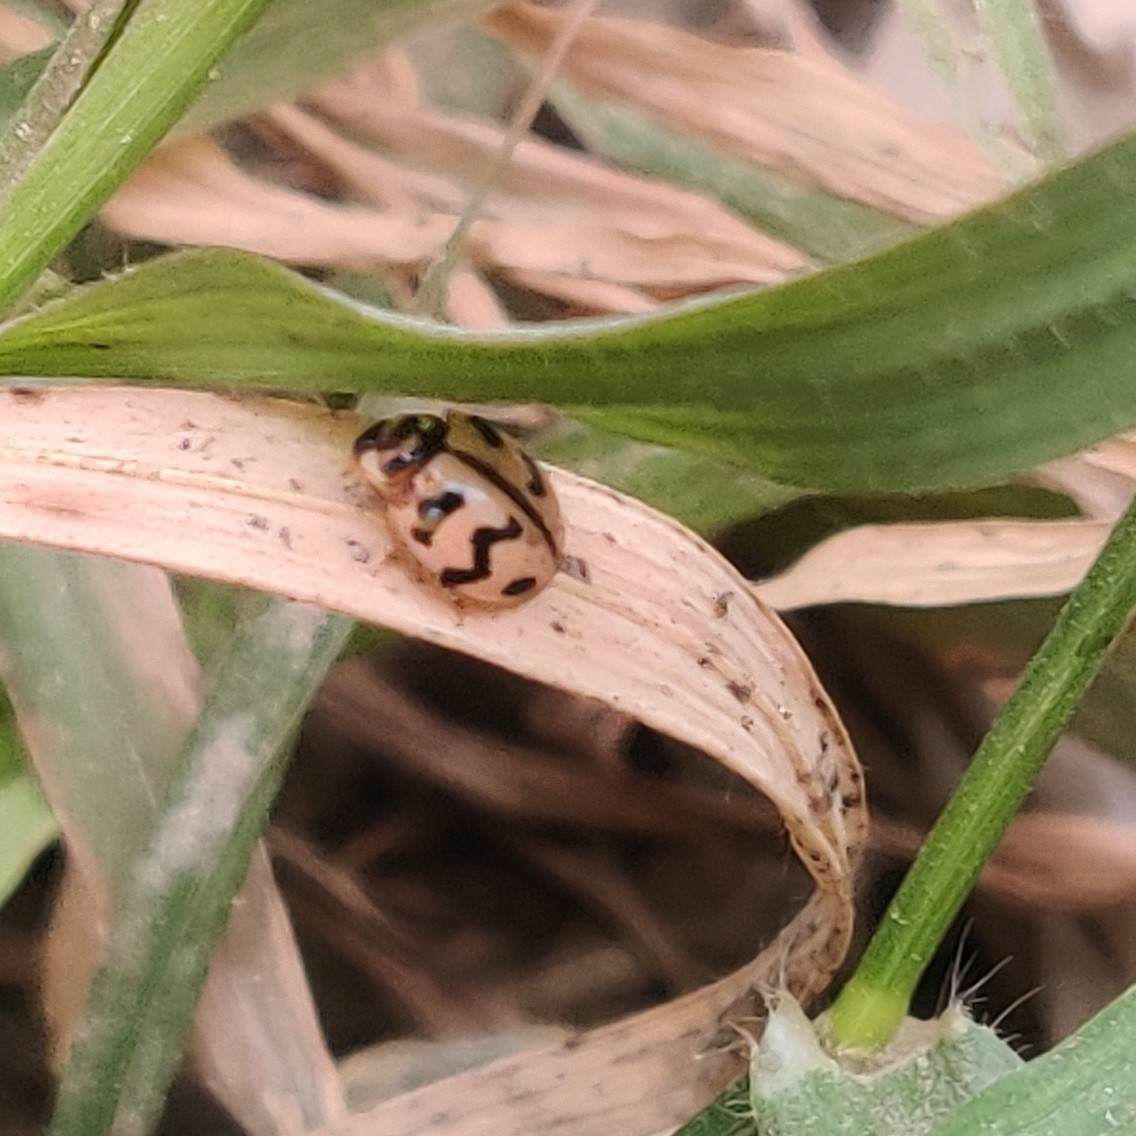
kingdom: Animalia
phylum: Arthropoda
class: Insecta
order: Coleoptera
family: Coccinellidae
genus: Cheilomenes
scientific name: Cheilomenes sexmaculata
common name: Ladybird beetle
